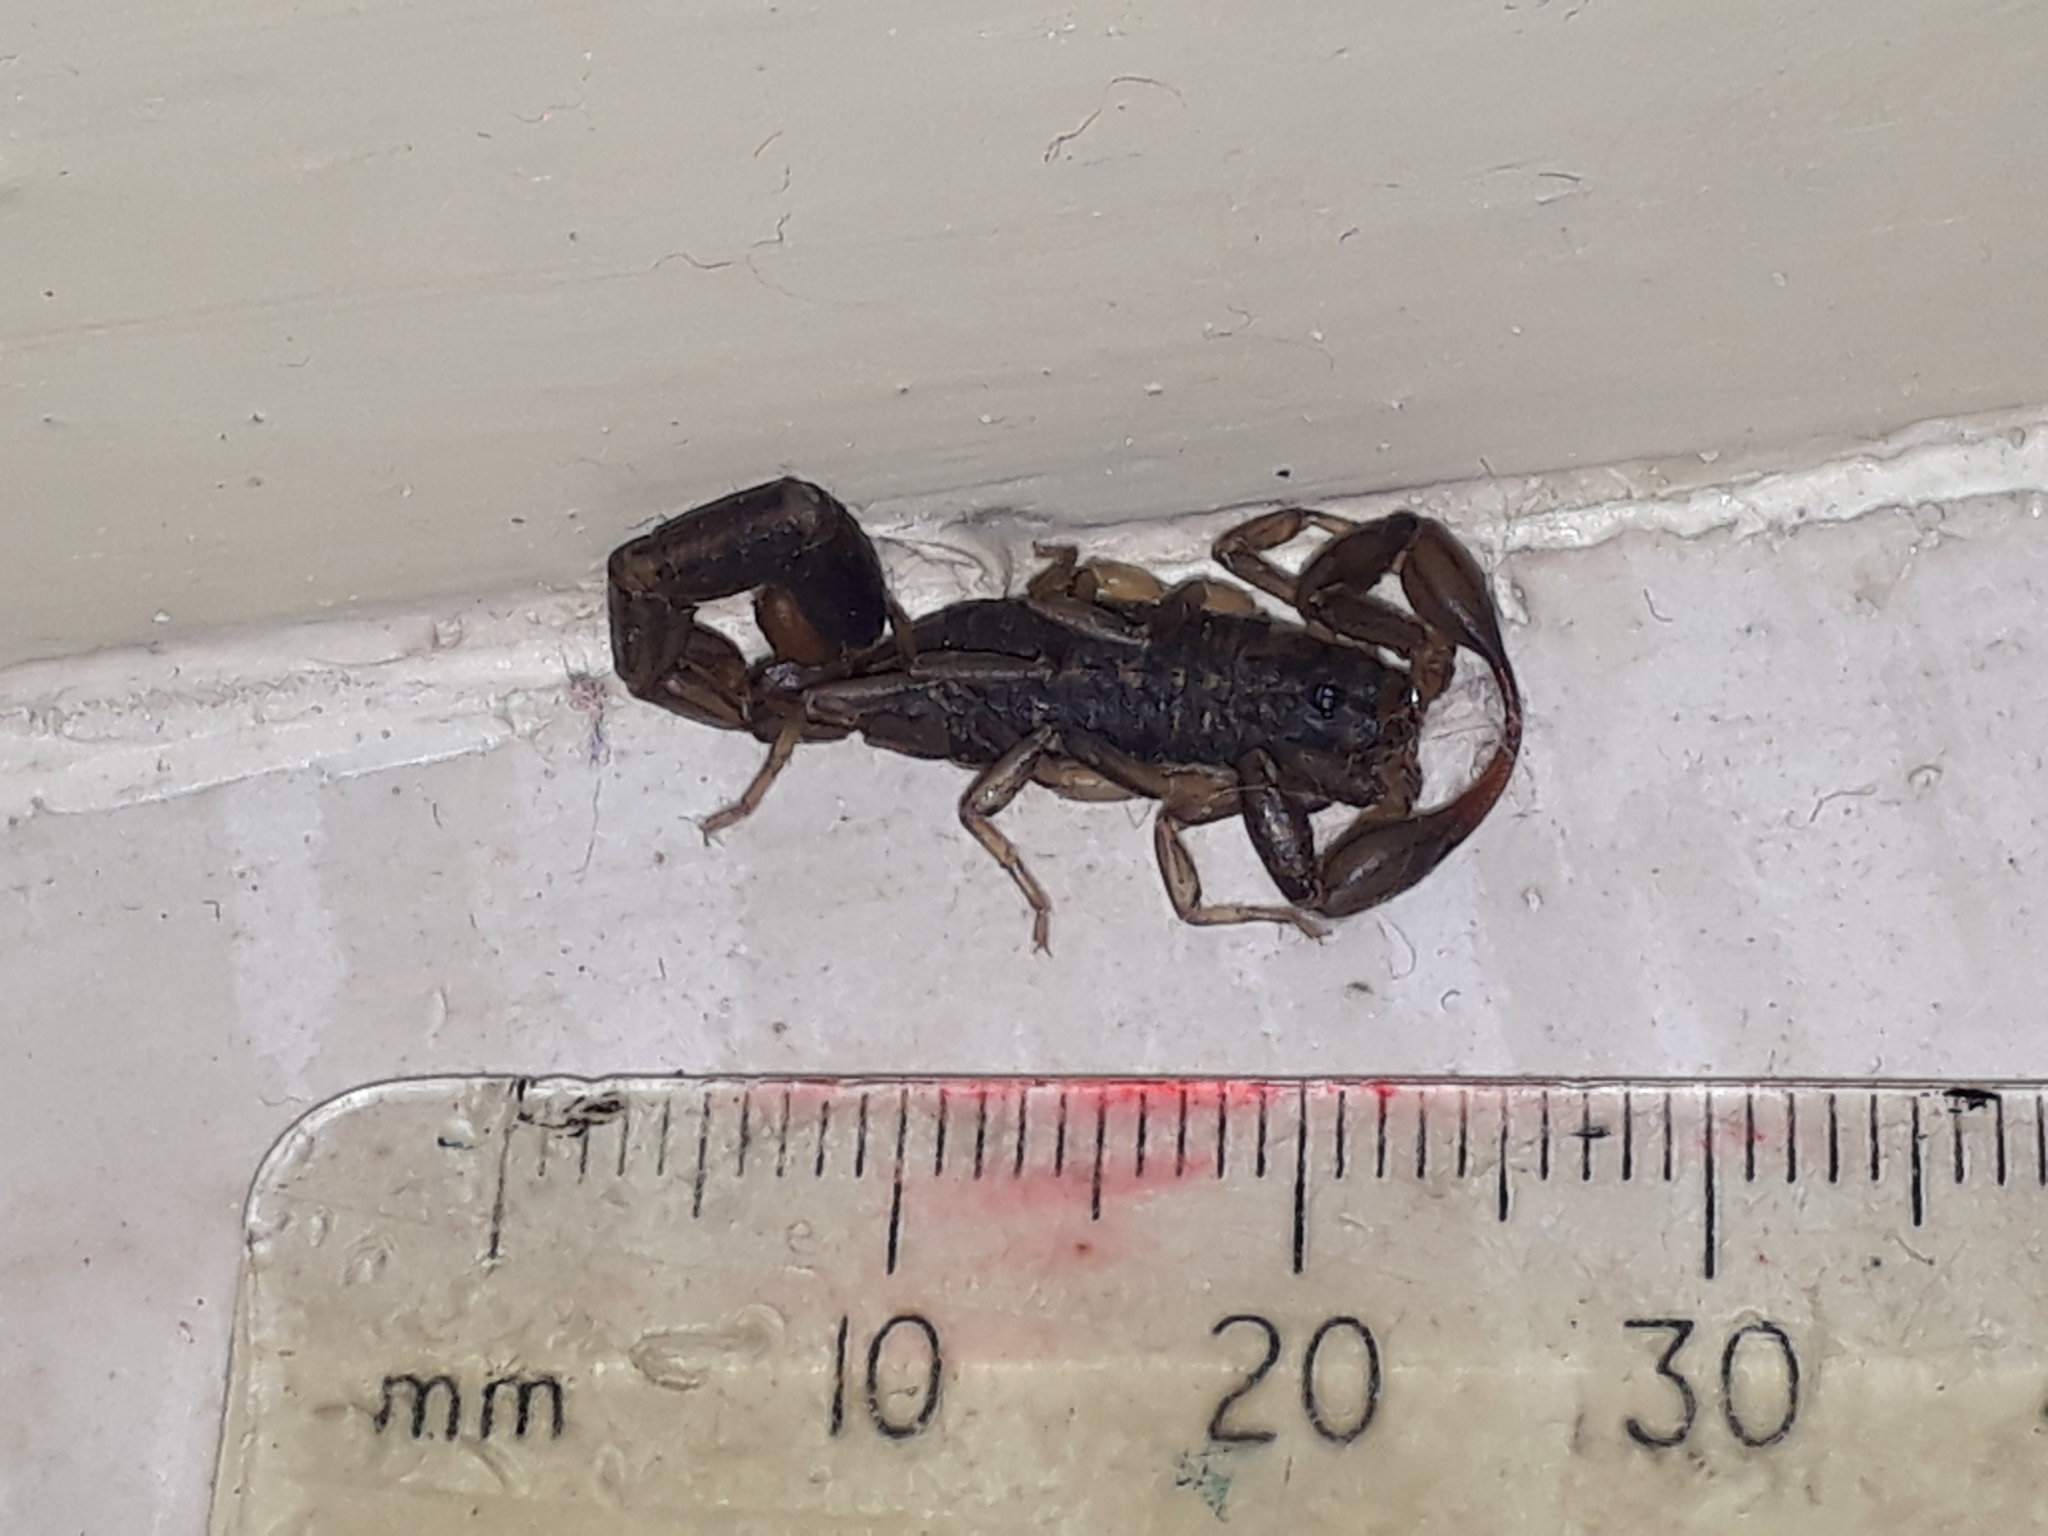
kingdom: Animalia
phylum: Arthropoda
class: Arachnida
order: Scorpiones
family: Buthidae
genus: Uroplectes
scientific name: Uroplectes insignis
